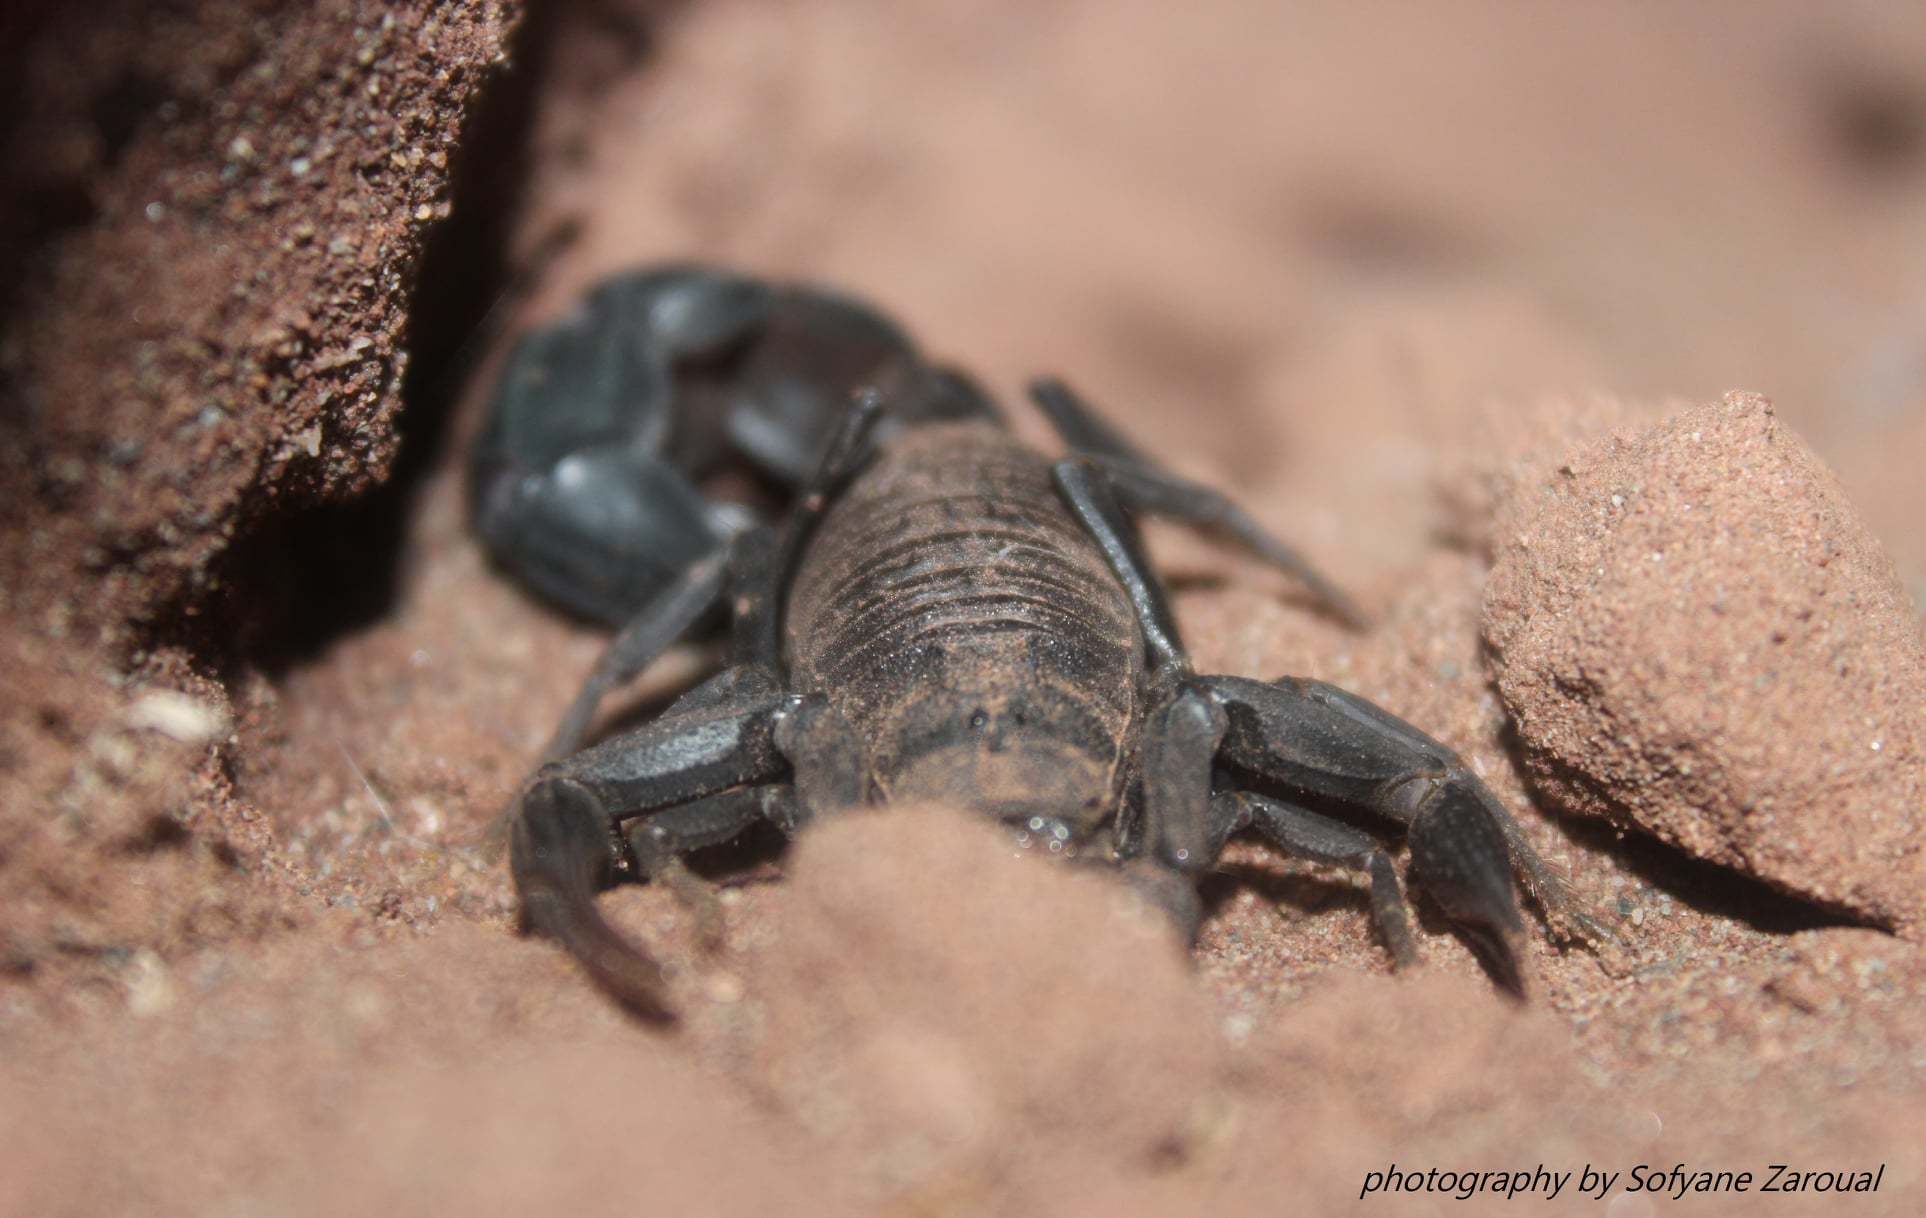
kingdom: Animalia
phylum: Arthropoda
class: Arachnida
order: Scorpiones
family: Buthidae
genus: Androctonus
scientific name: Androctonus bourdoni
